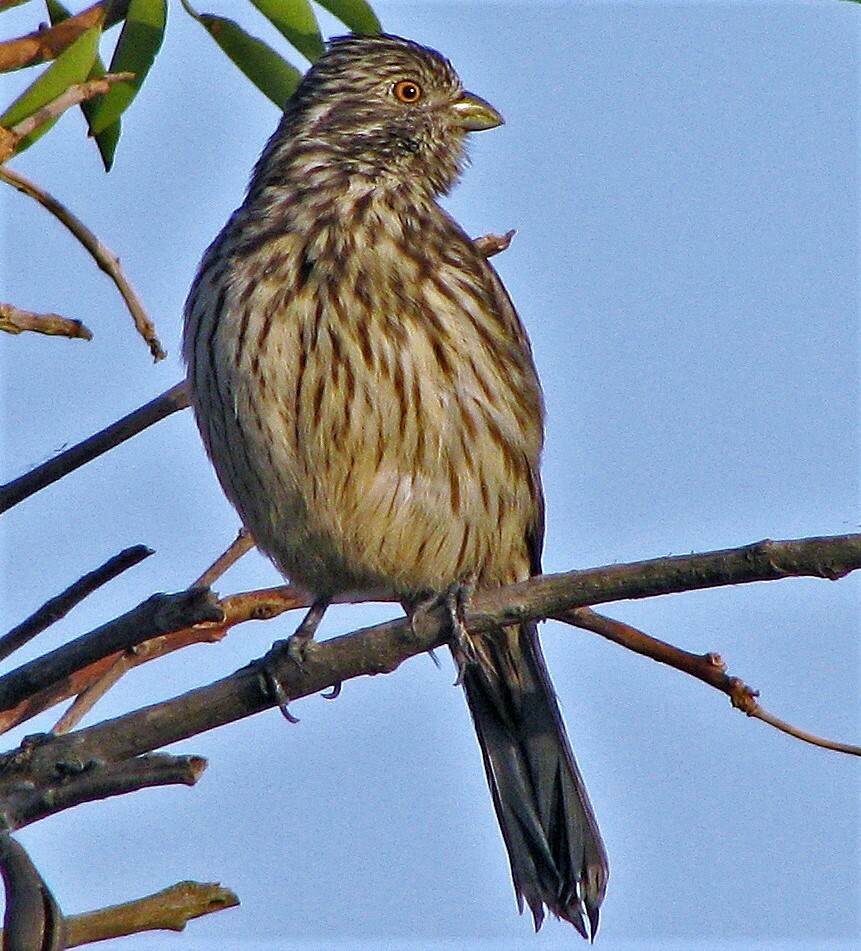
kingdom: Animalia
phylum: Chordata
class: Aves
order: Passeriformes
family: Cotingidae
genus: Phytotoma
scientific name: Phytotoma rutila
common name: White-tipped plantcutter
